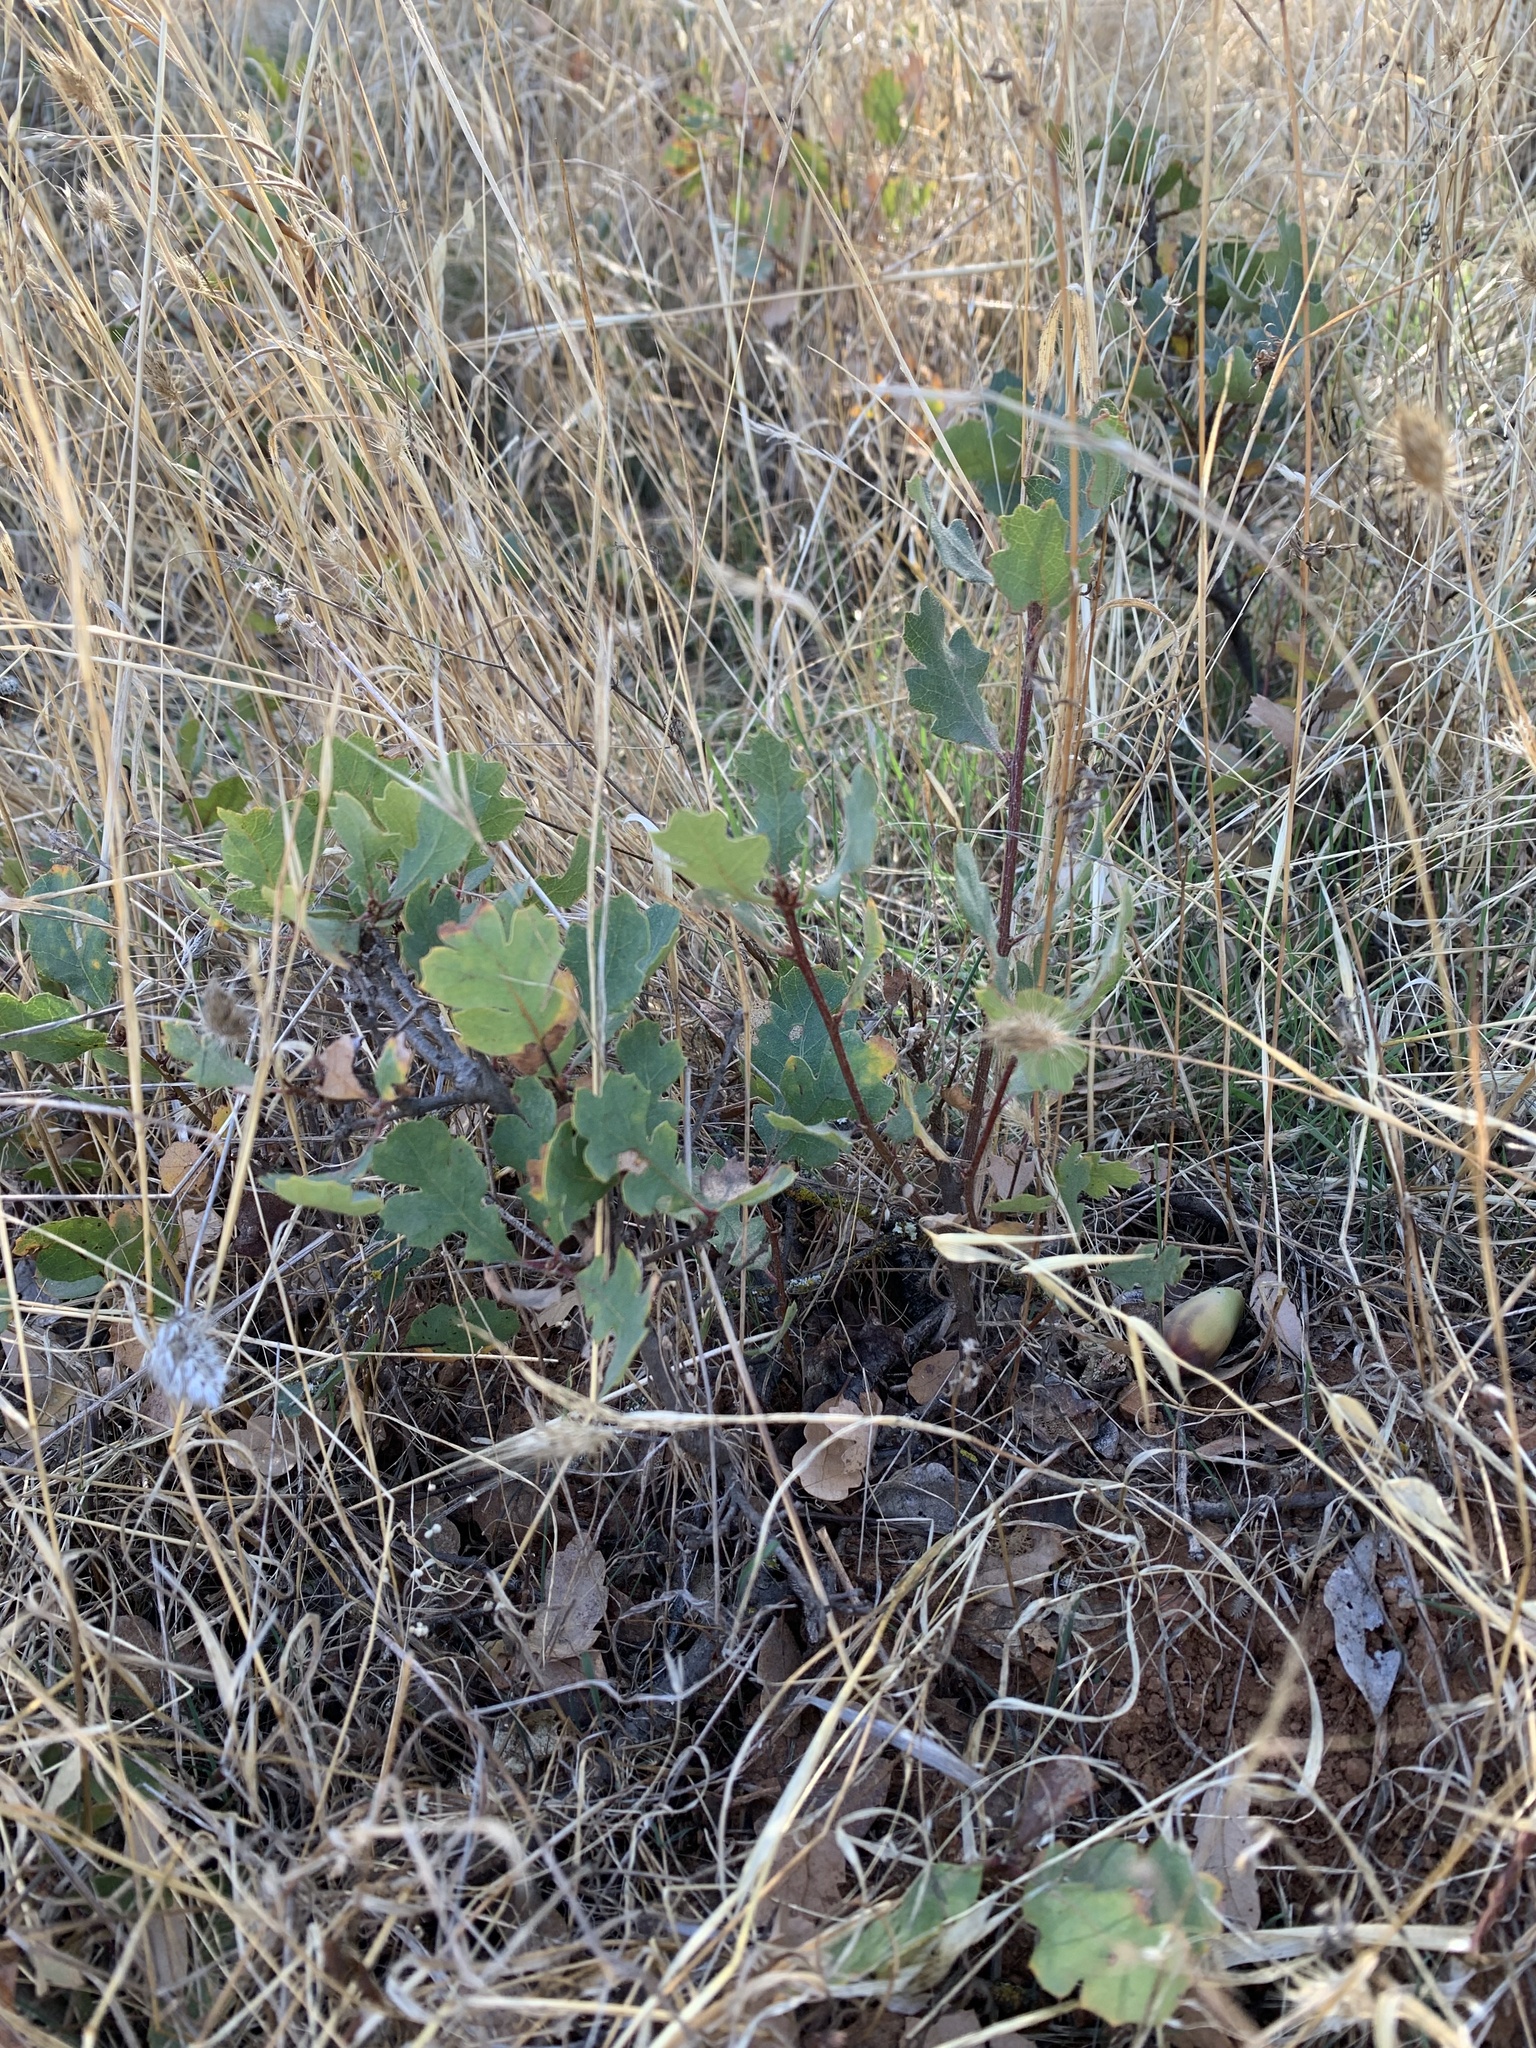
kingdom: Plantae
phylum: Tracheophyta
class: Magnoliopsida
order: Fagales
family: Fagaceae
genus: Quercus
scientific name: Quercus douglasii
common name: Blue oak
